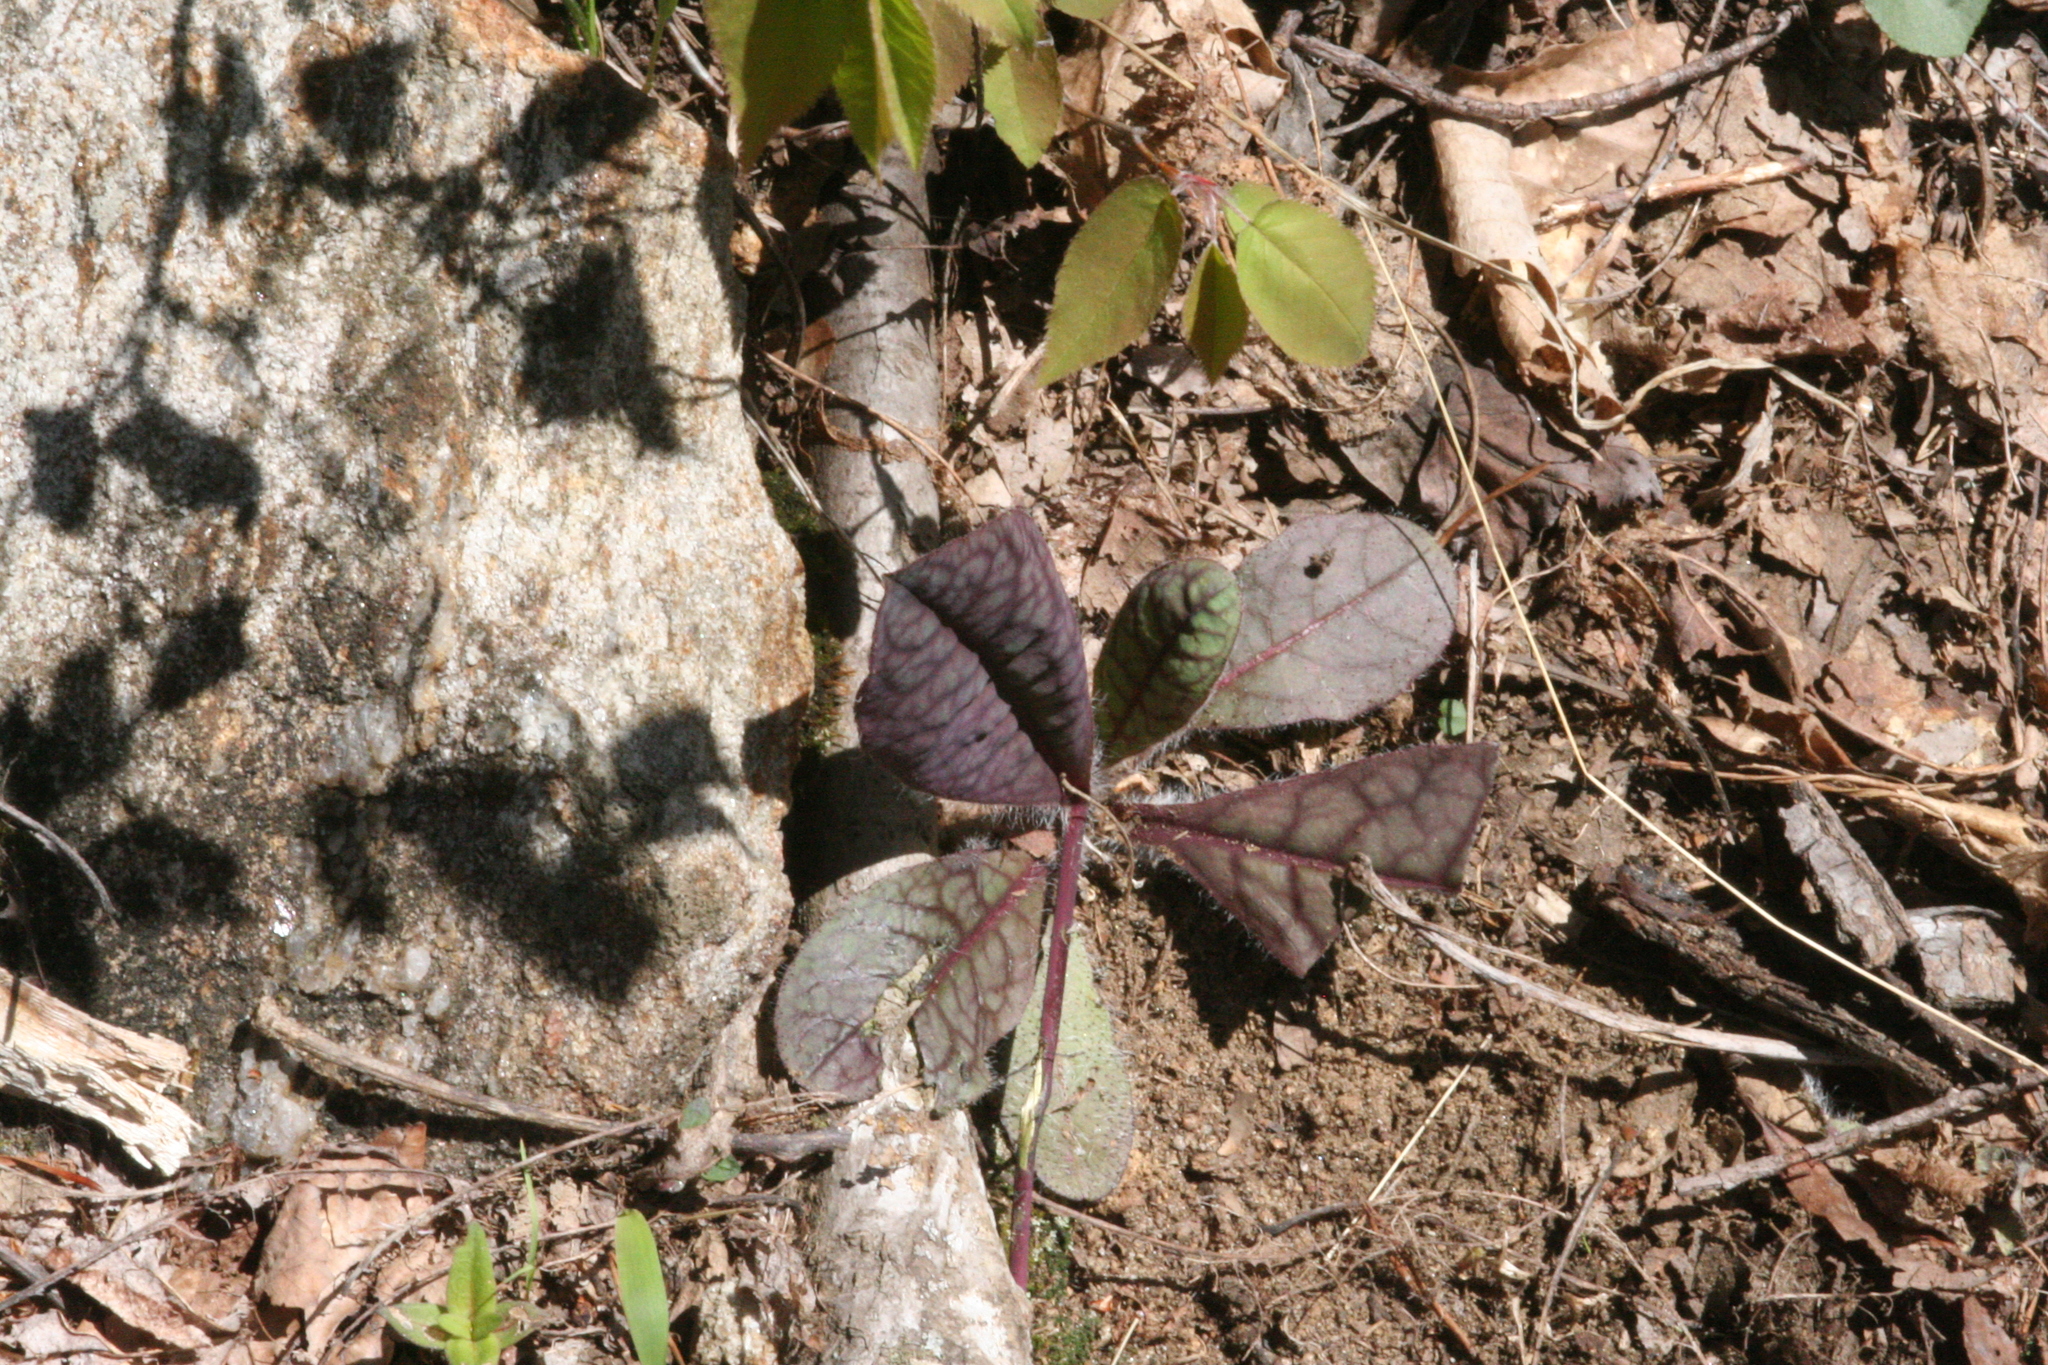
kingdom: Plantae
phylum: Tracheophyta
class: Magnoliopsida
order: Asterales
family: Asteraceae
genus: Hieracium
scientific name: Hieracium venosum
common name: Rattlesnake hawkweed
